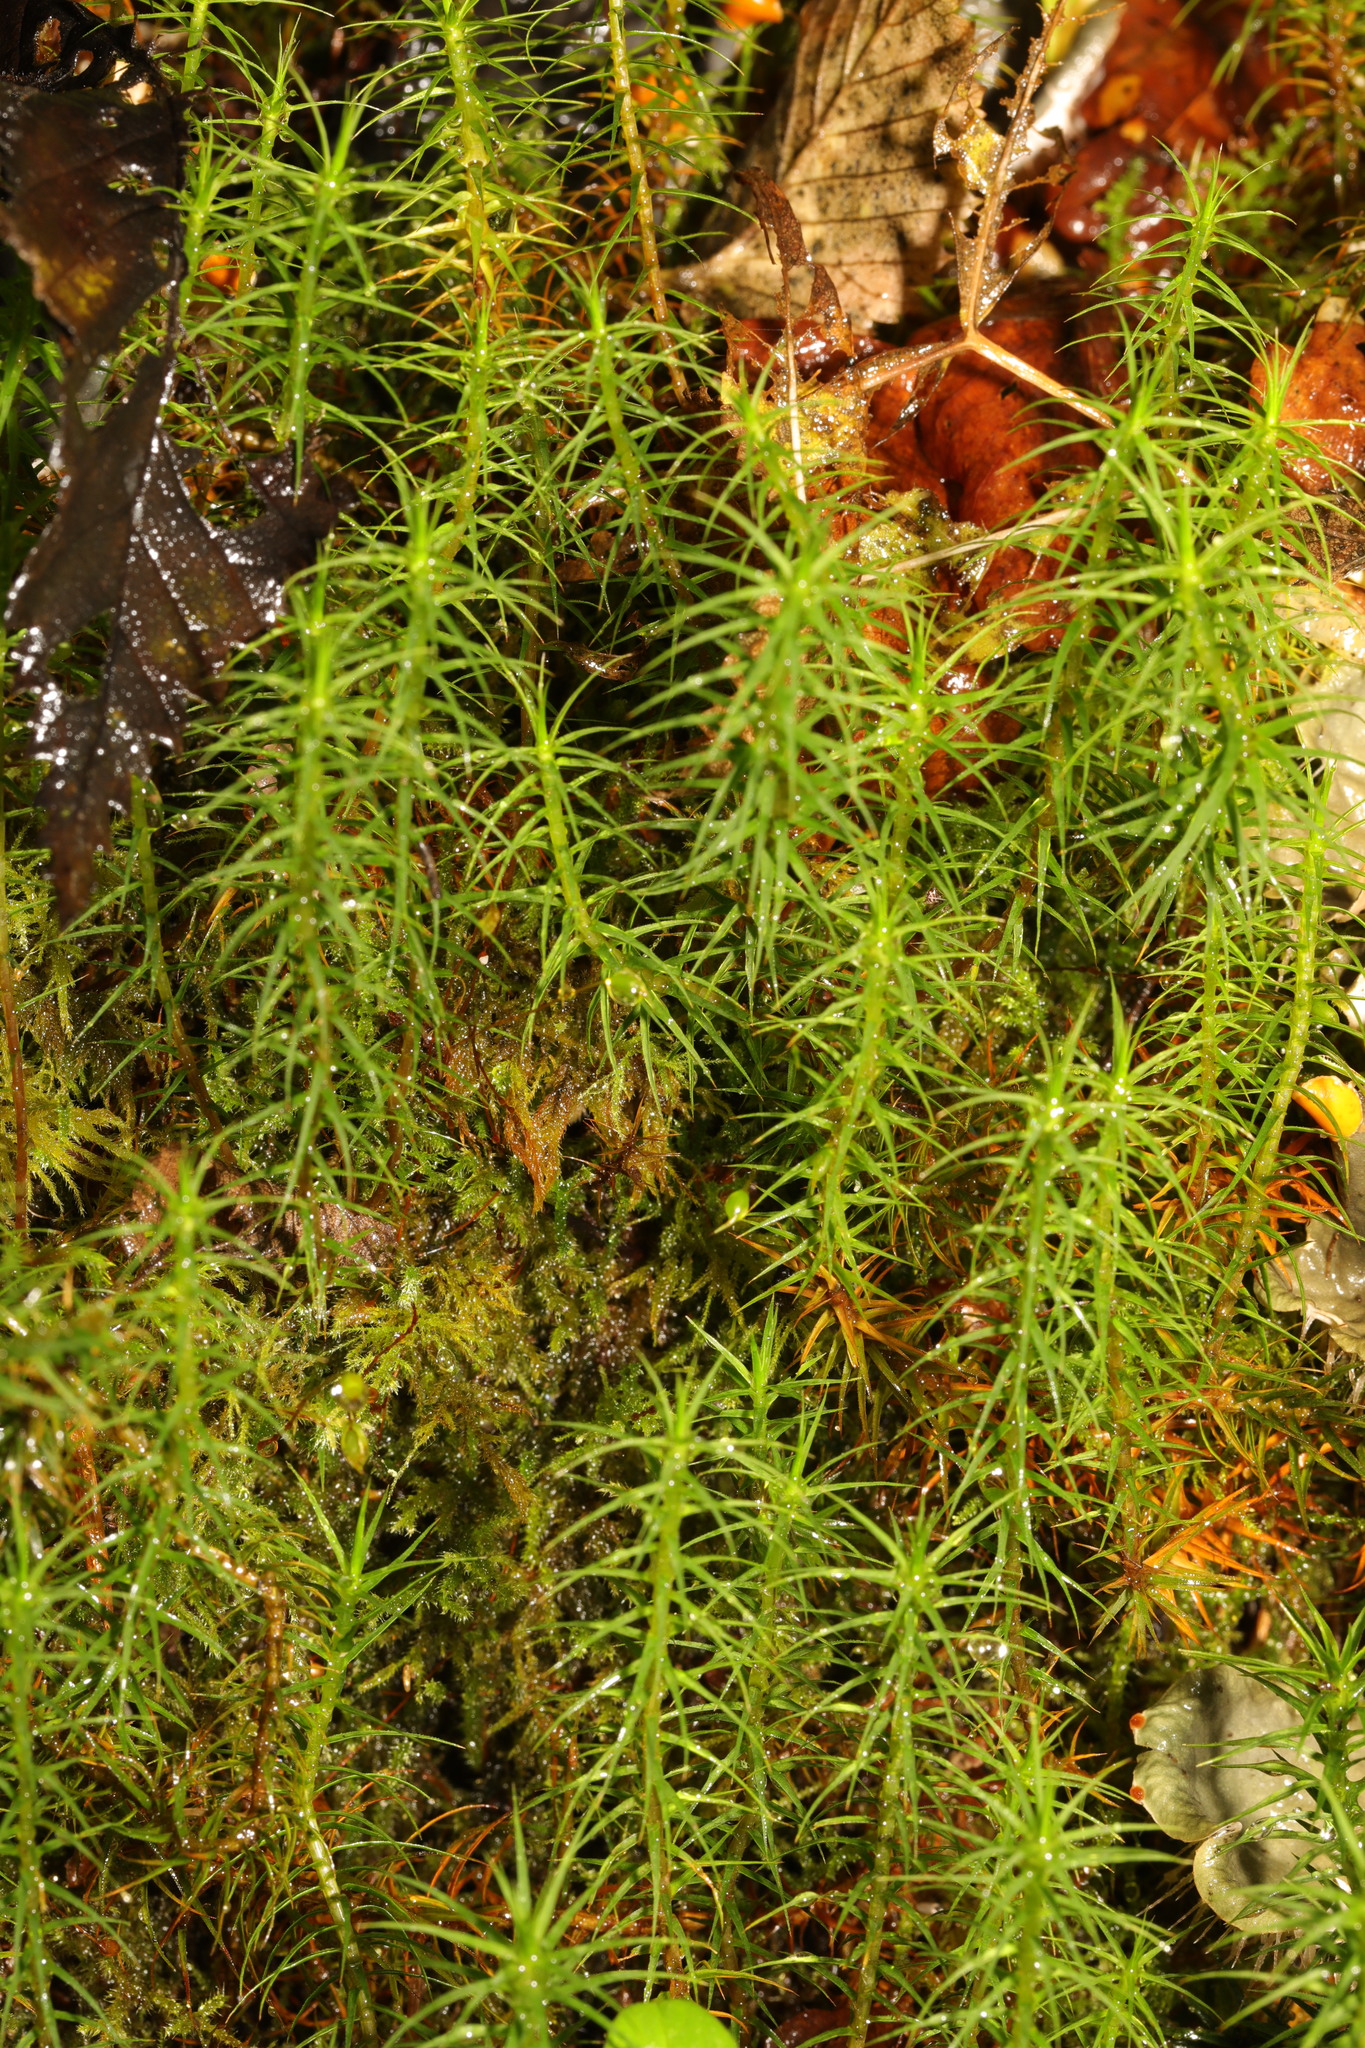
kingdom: Plantae
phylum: Bryophyta
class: Polytrichopsida
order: Polytrichales
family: Polytrichaceae
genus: Polytrichum
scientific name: Polytrichum commune
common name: Common haircap
